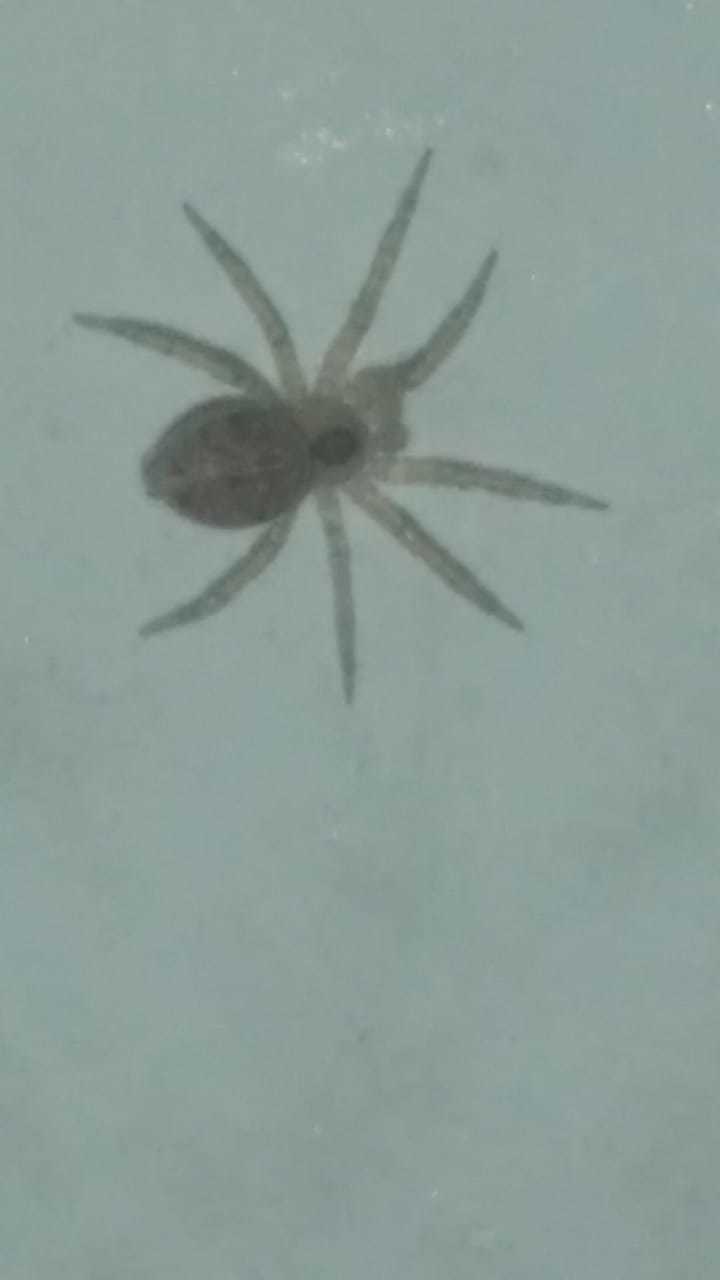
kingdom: Animalia
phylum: Arthropoda
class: Arachnida
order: Araneae
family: Oecobiidae
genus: Oecobius
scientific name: Oecobius navus
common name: Flatmesh weaver
